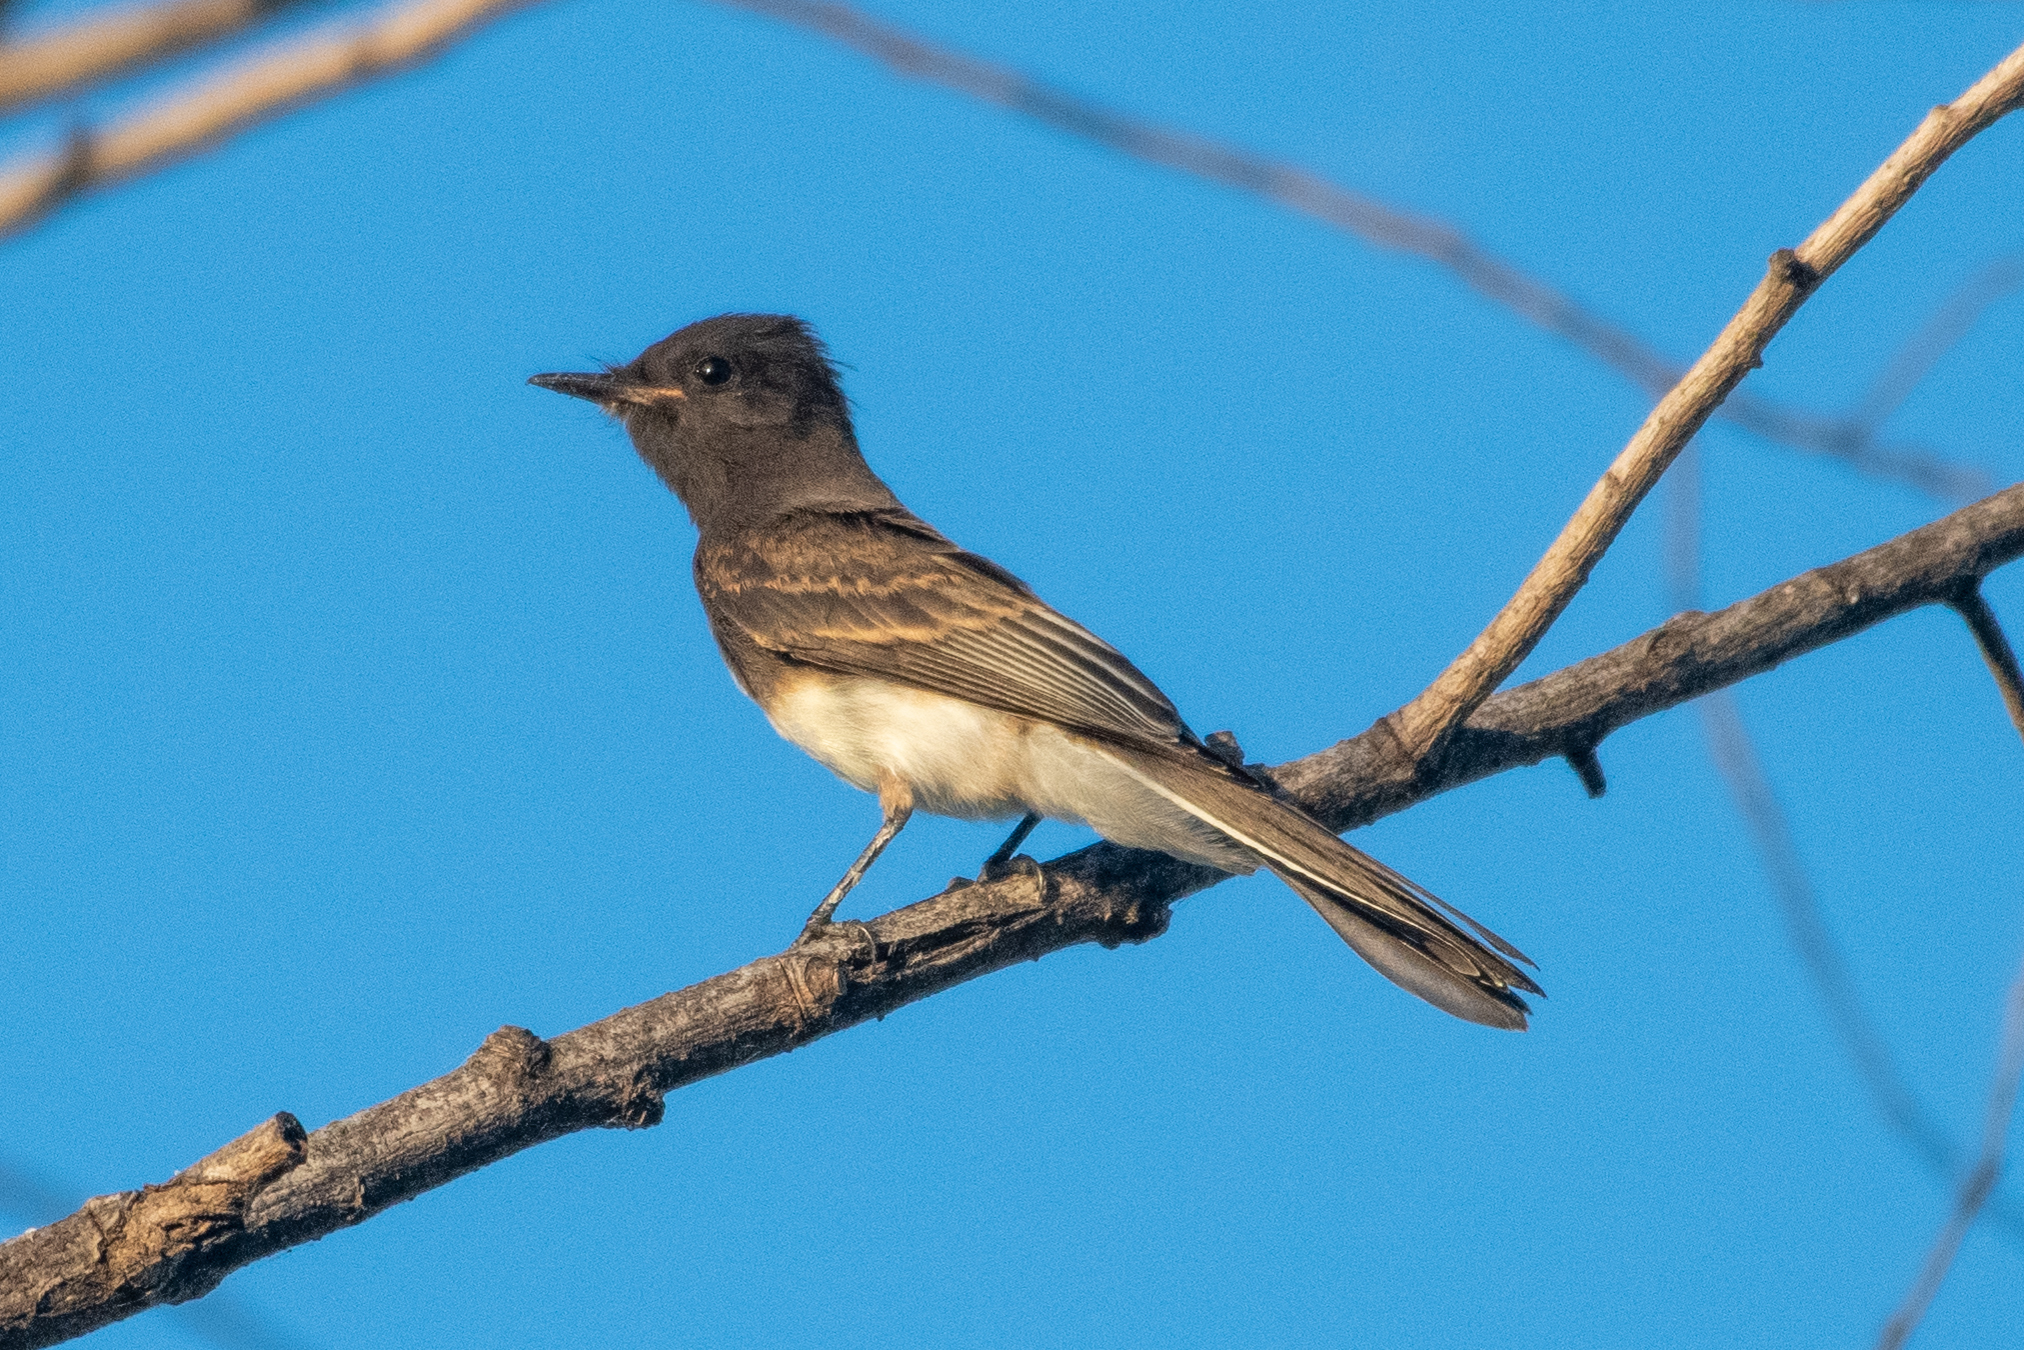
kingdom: Animalia
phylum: Chordata
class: Aves
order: Passeriformes
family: Tyrannidae
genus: Sayornis
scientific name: Sayornis nigricans
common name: Black phoebe
